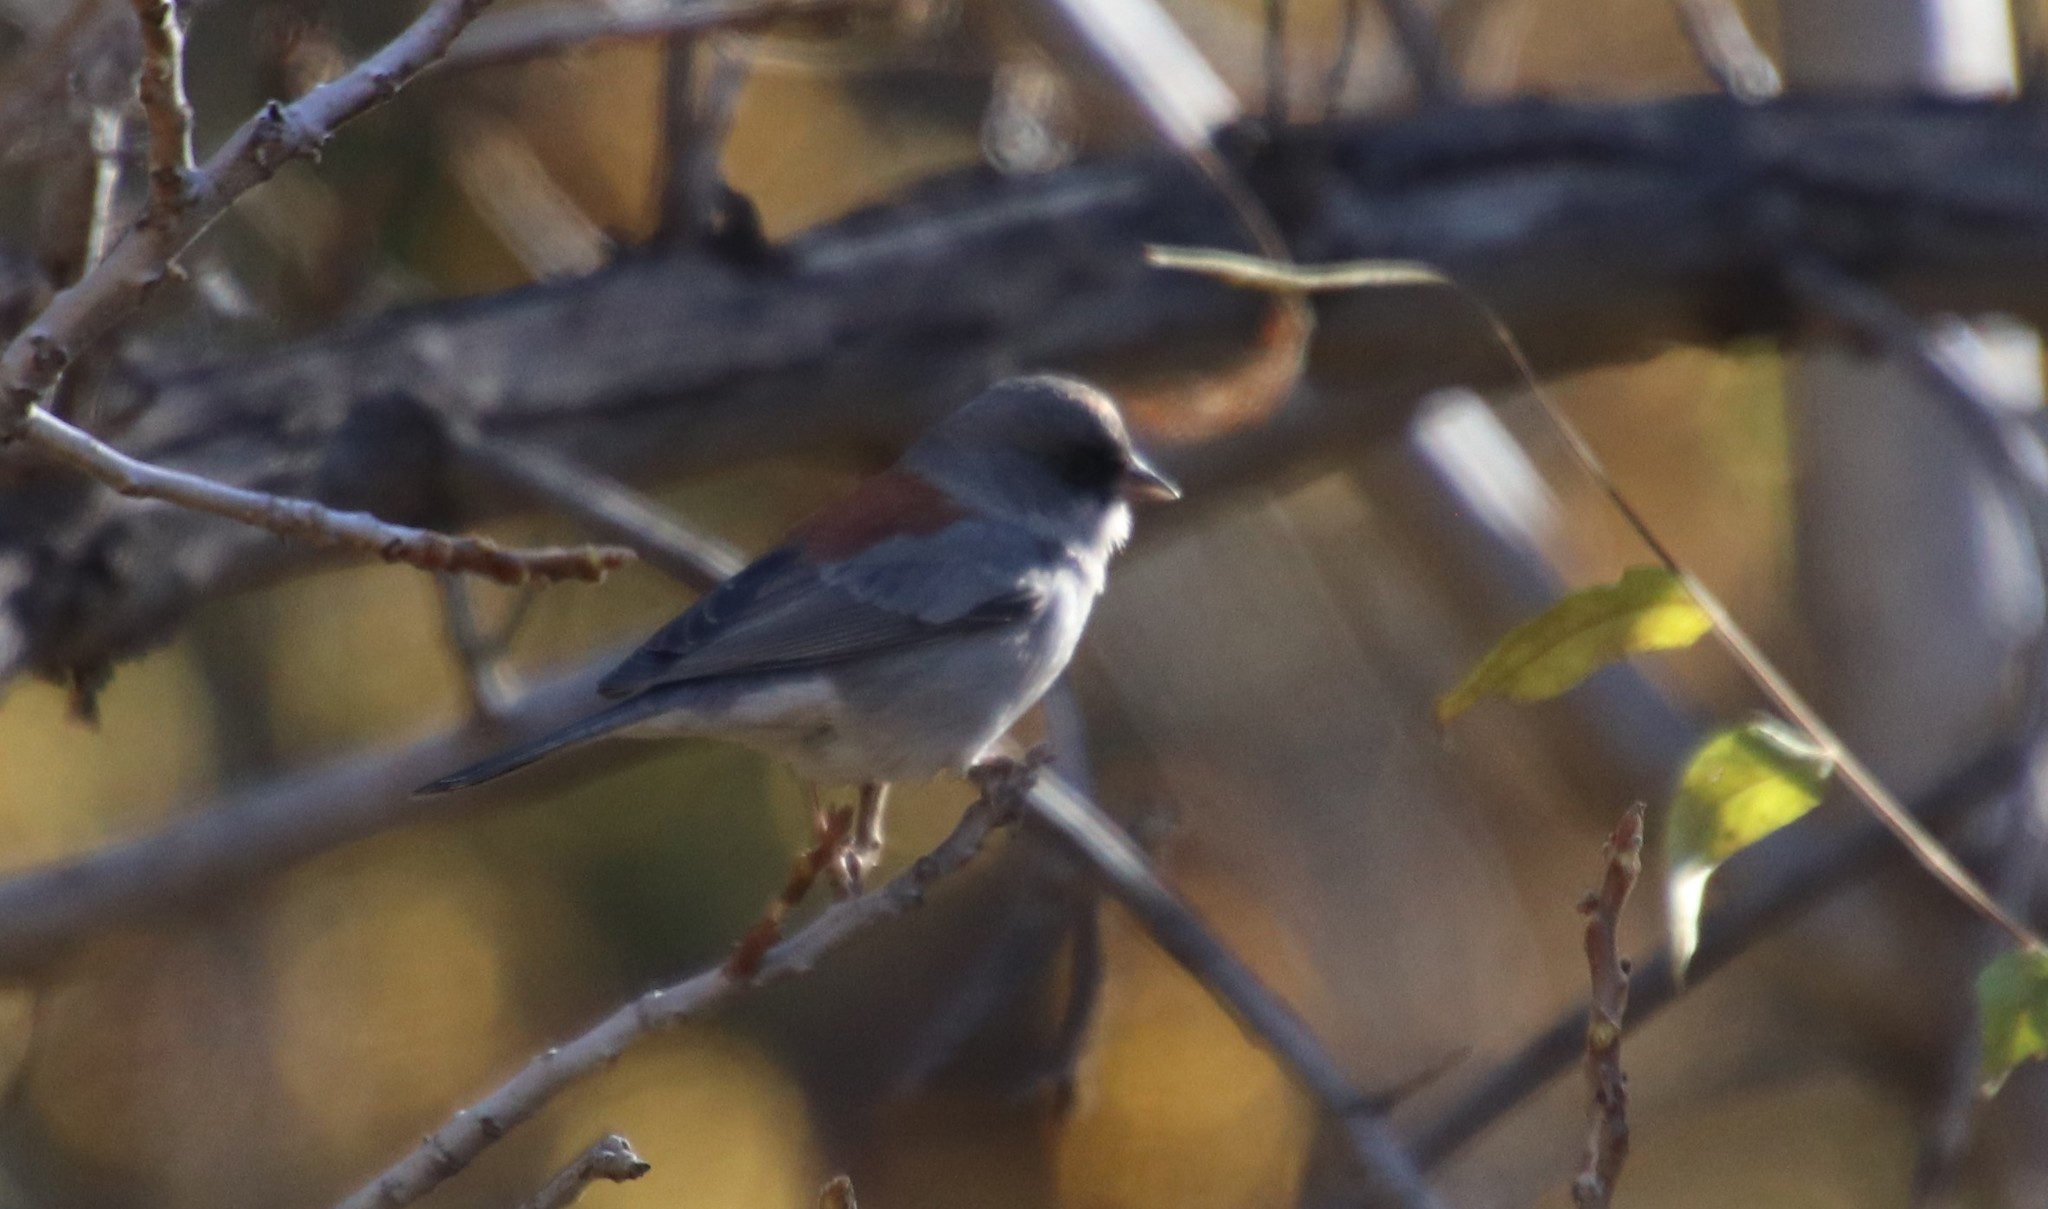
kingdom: Animalia
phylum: Chordata
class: Aves
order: Passeriformes
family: Passerellidae
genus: Junco
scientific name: Junco hyemalis
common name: Dark-eyed junco
